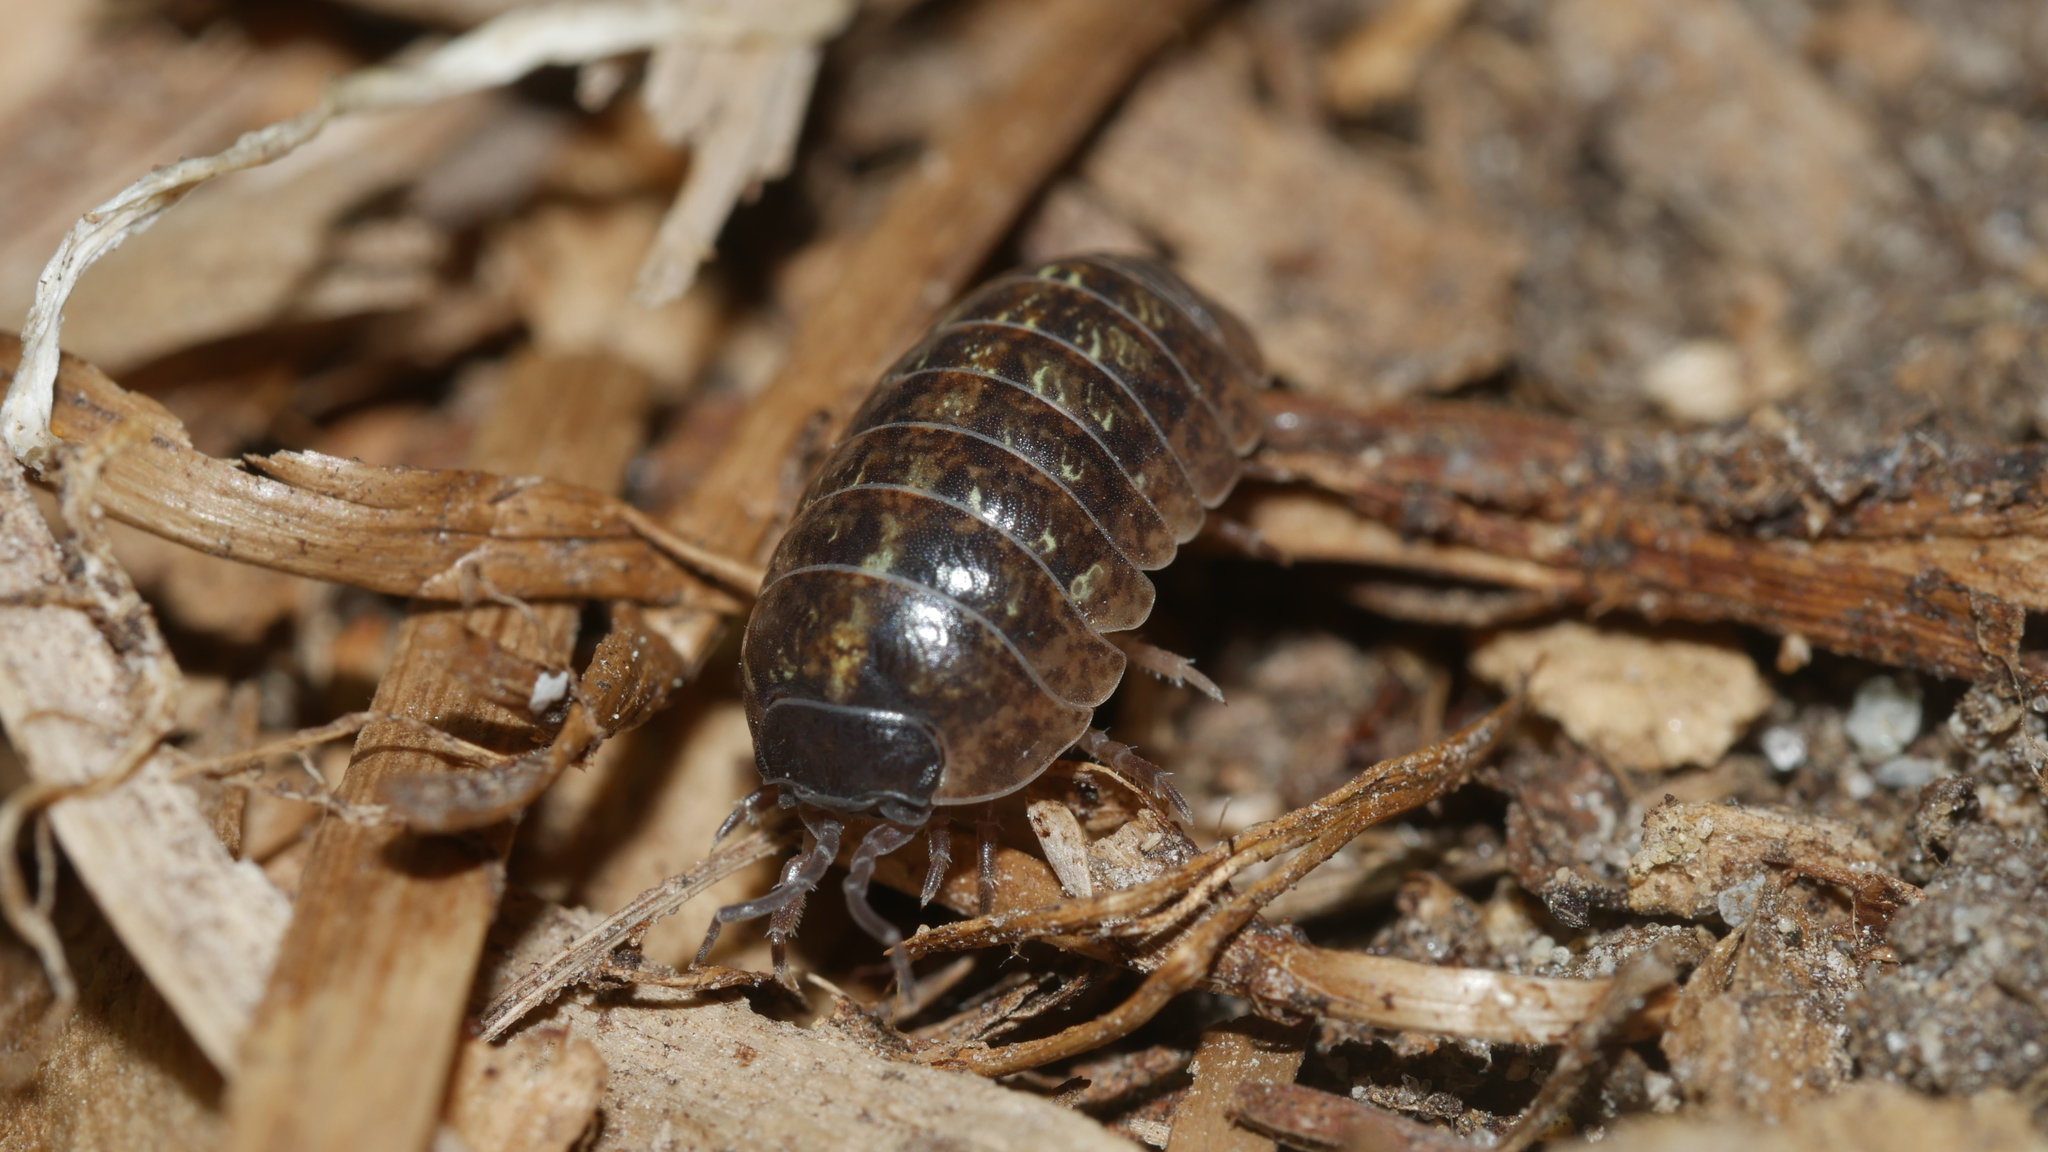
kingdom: Animalia
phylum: Arthropoda
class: Malacostraca
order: Isopoda
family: Armadillidiidae
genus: Armadillidium
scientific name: Armadillidium vulgare
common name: Common pill woodlouse
